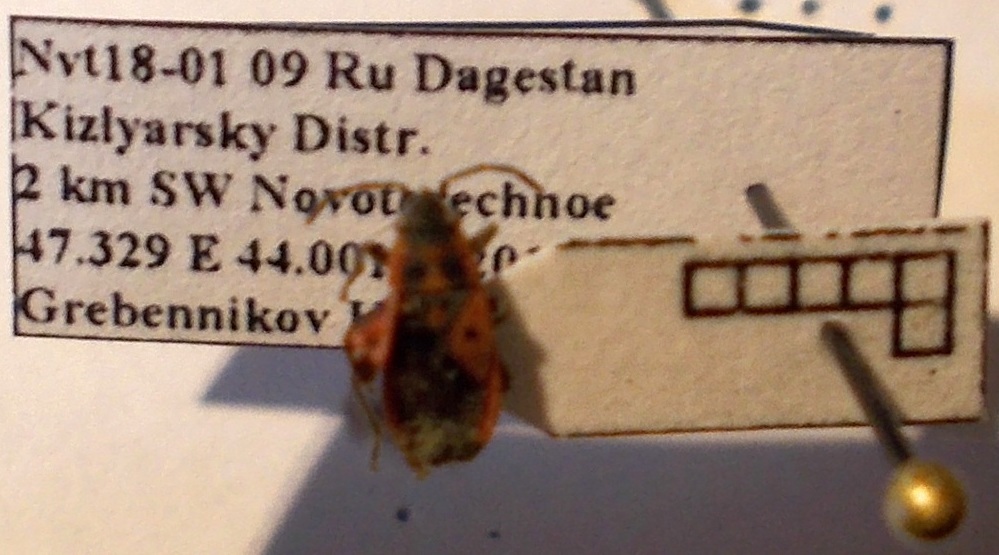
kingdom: Animalia
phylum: Arthropoda
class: Insecta
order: Hemiptera
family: Lygaeidae
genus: Melanocoryphus
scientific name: Melanocoryphus tristrami
